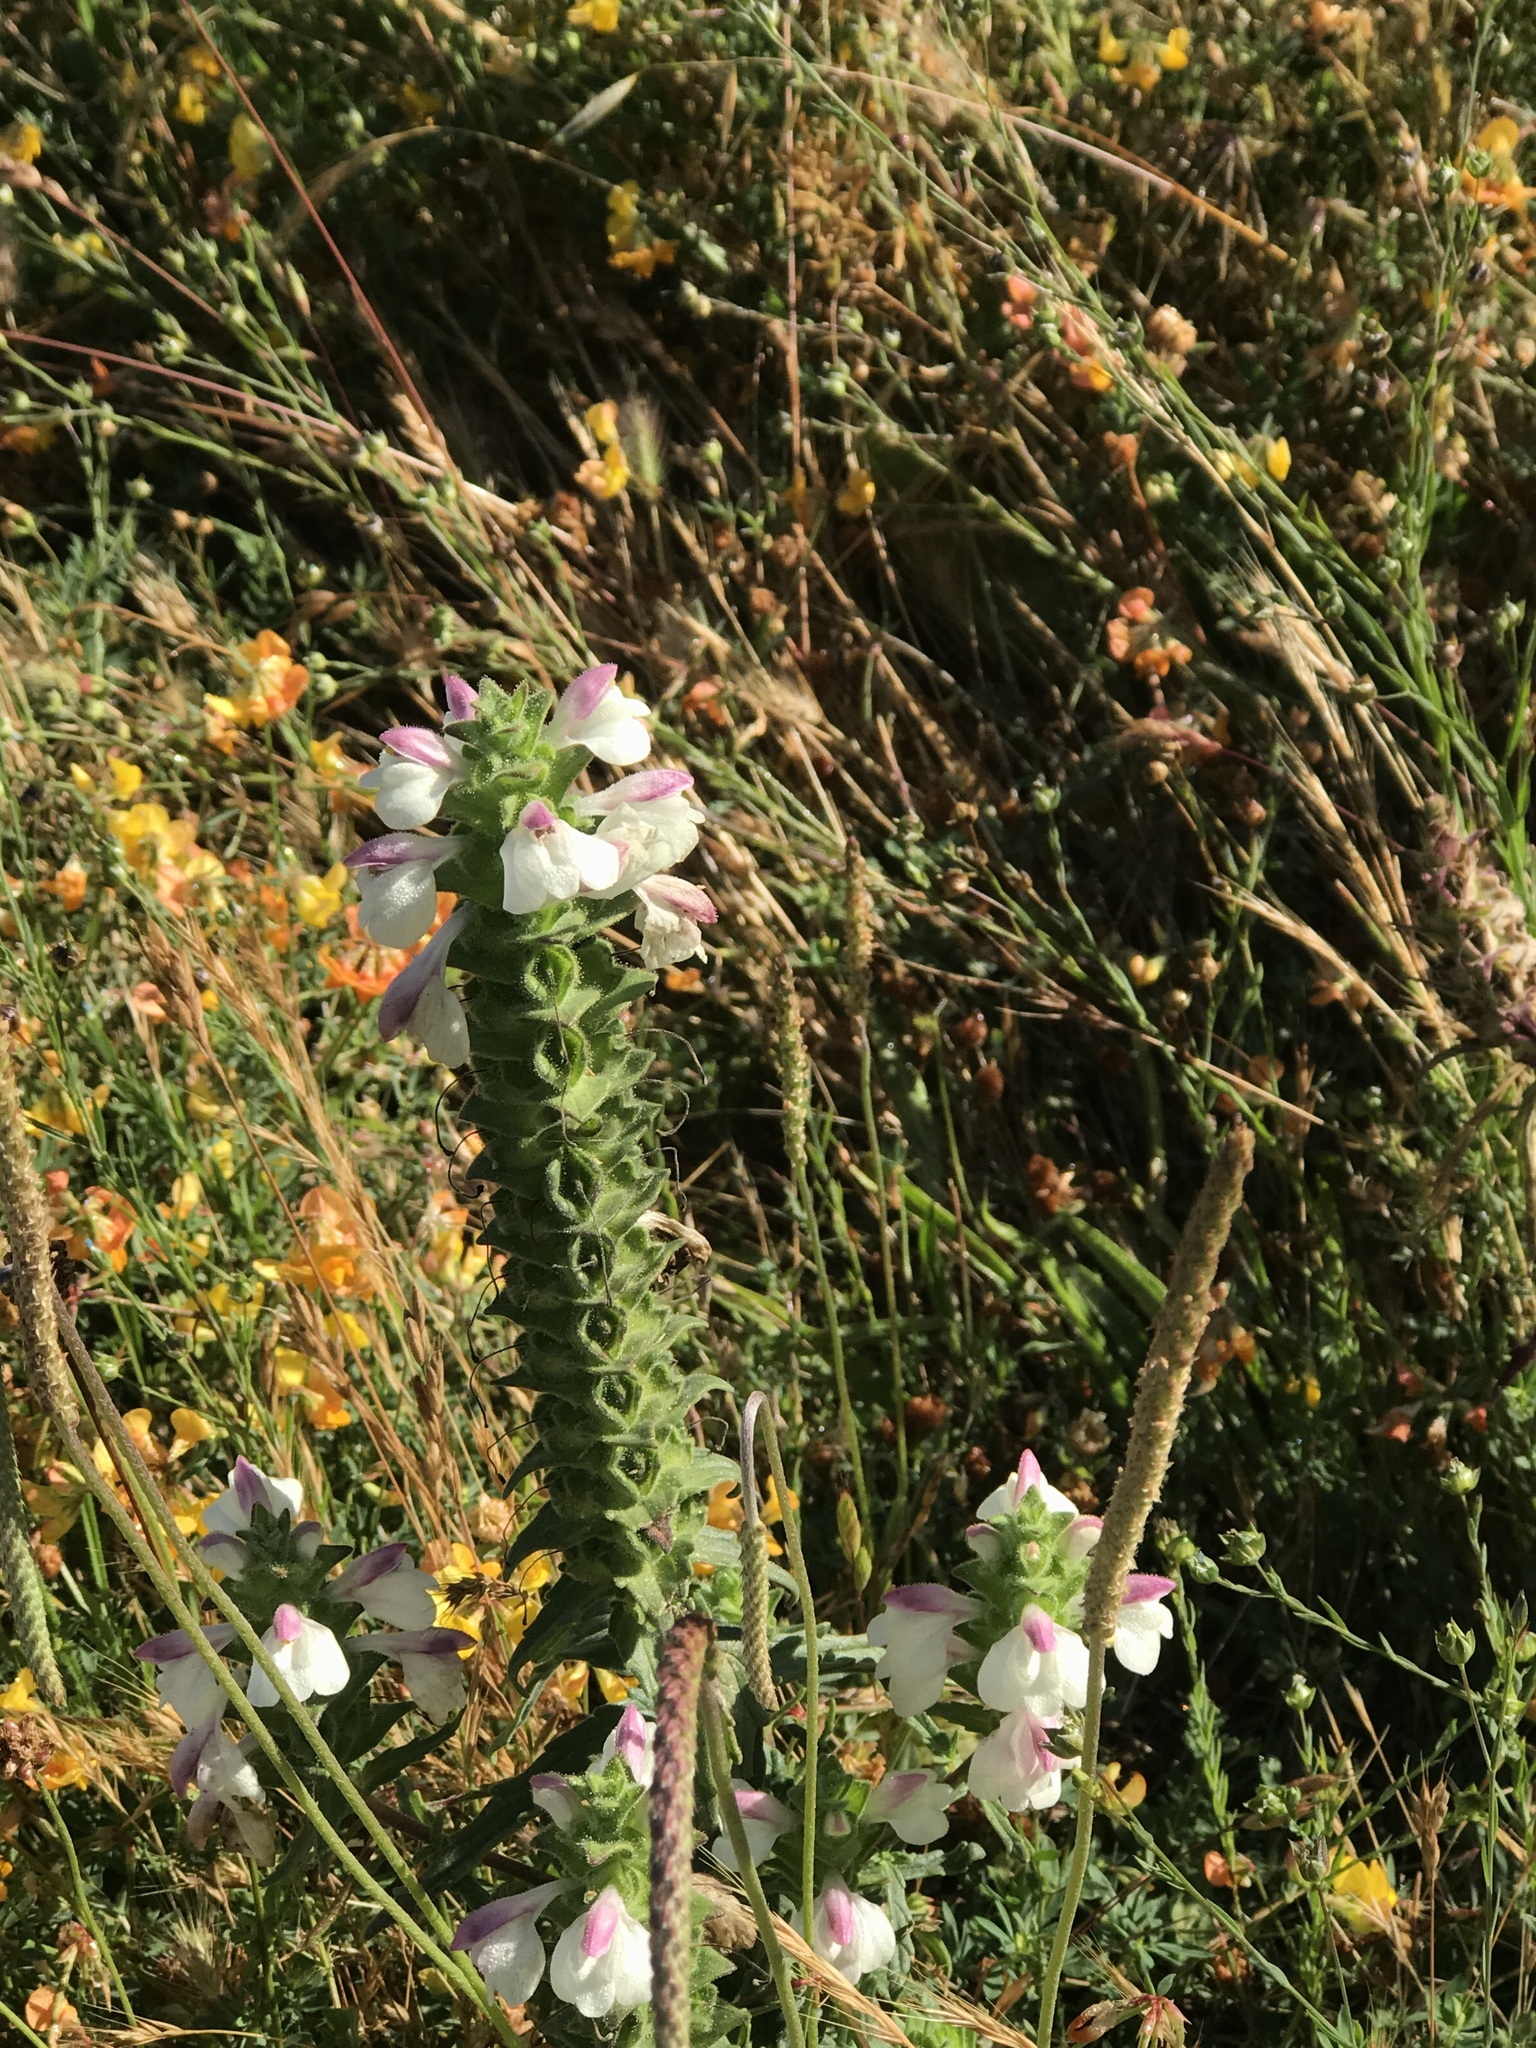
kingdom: Plantae
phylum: Tracheophyta
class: Magnoliopsida
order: Lamiales
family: Orobanchaceae
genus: Bellardia
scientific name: Bellardia trixago
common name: Mediterranean lineseed
